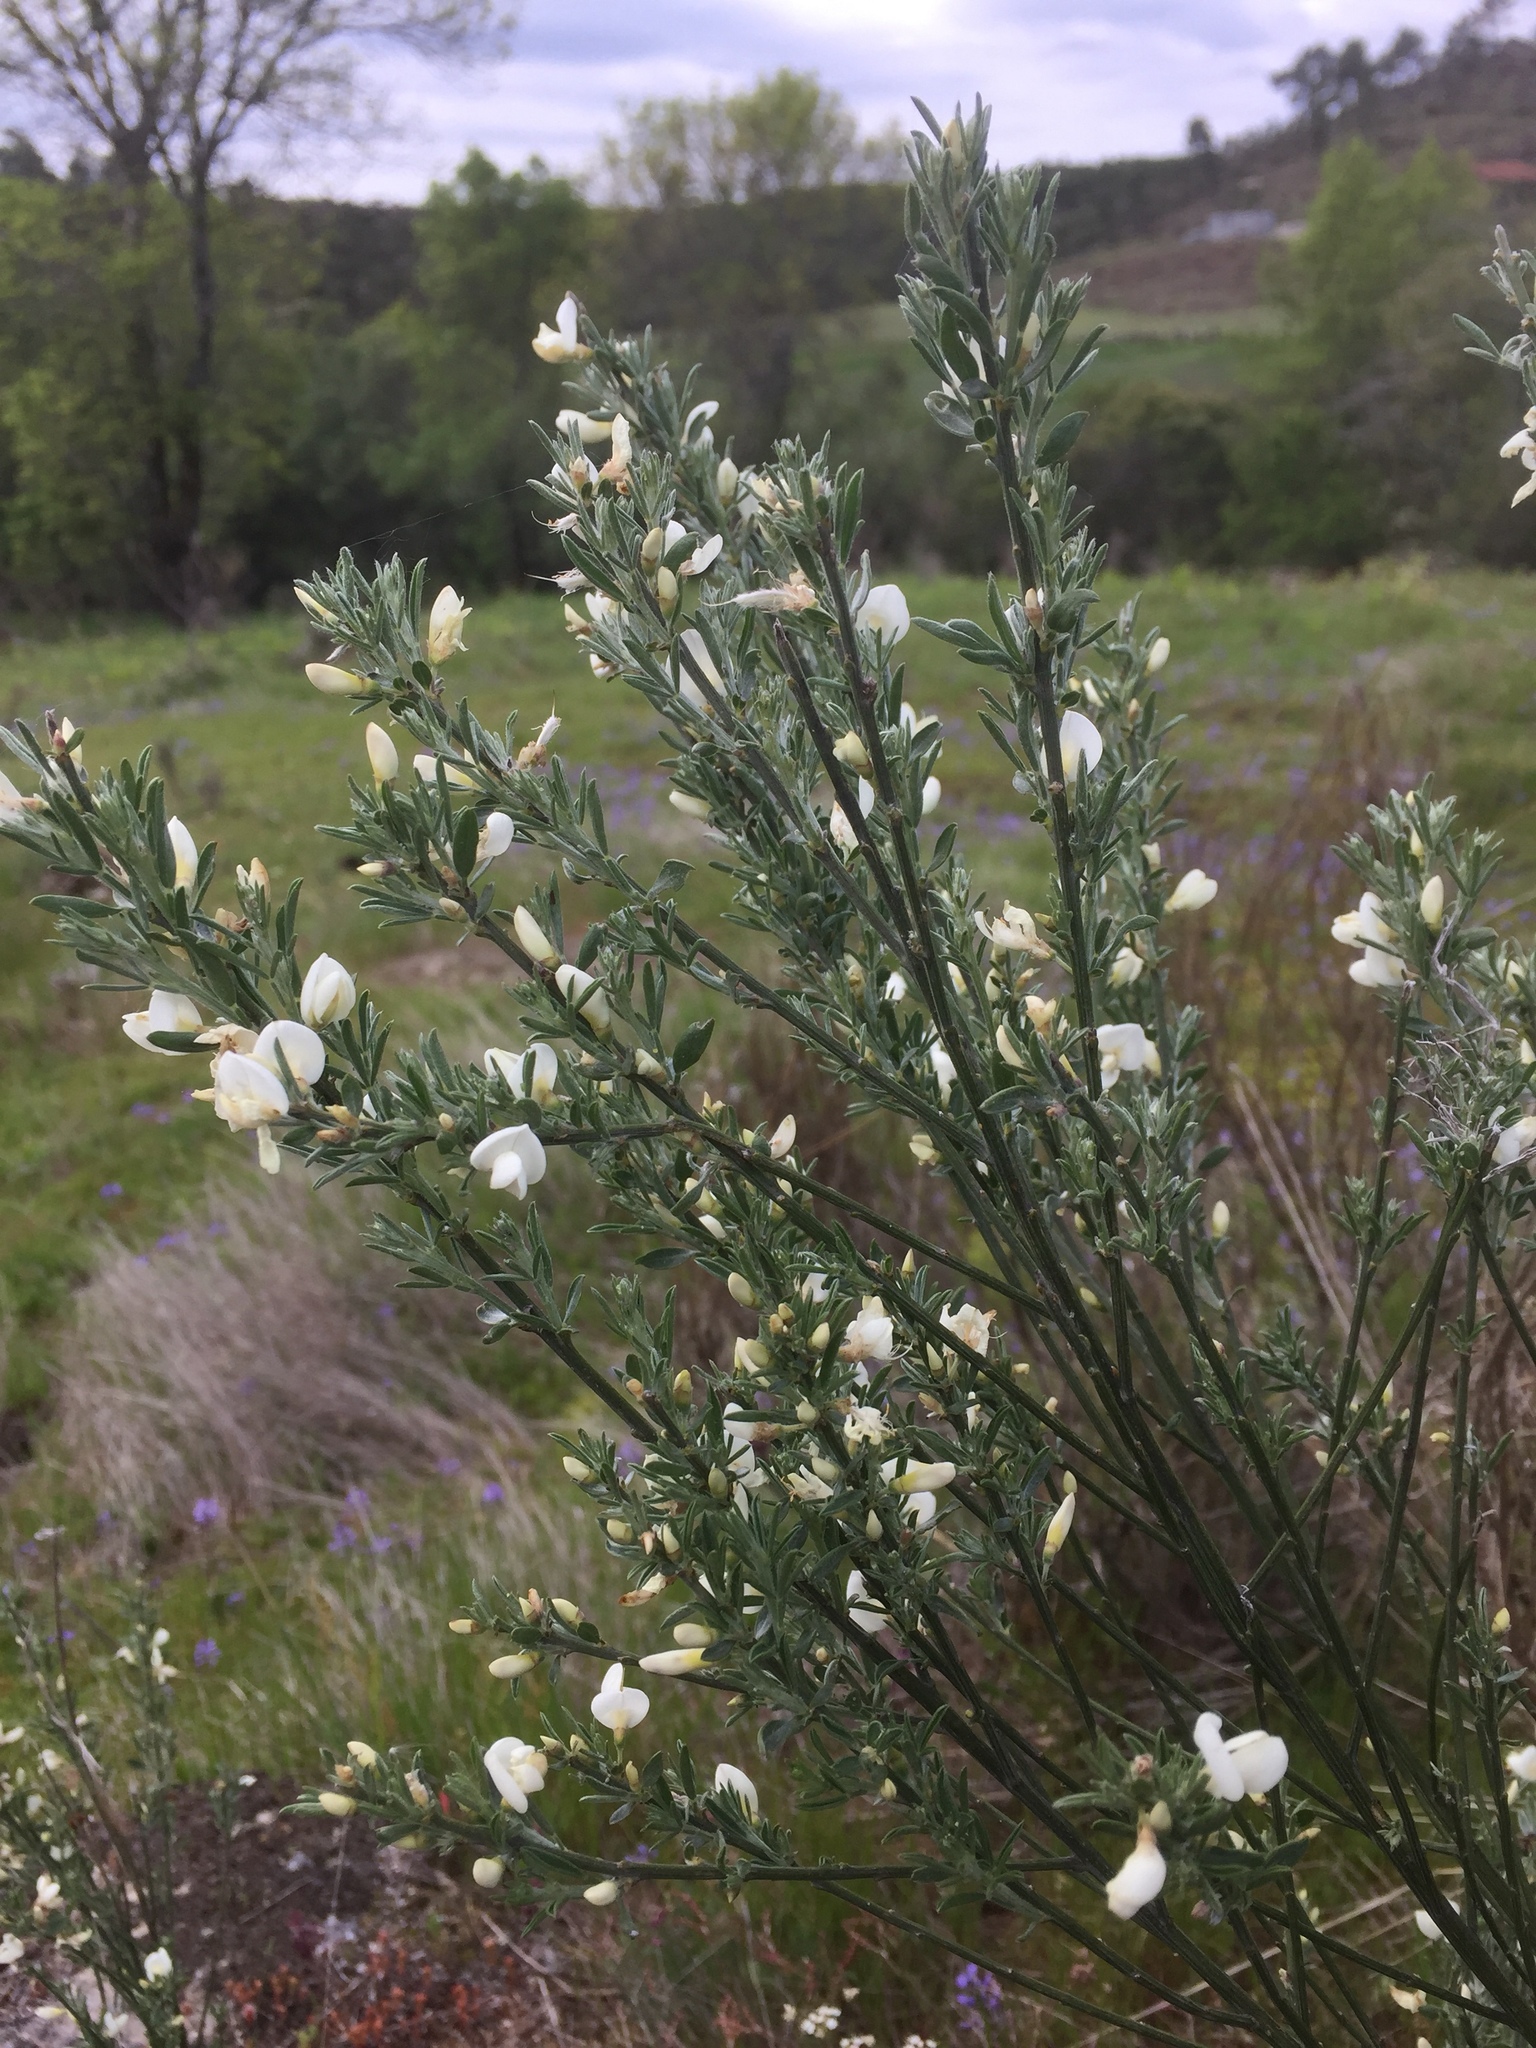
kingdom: Plantae
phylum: Tracheophyta
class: Magnoliopsida
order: Fabales
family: Fabaceae
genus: Cytisus
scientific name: Cytisus multiflorus
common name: White broom
